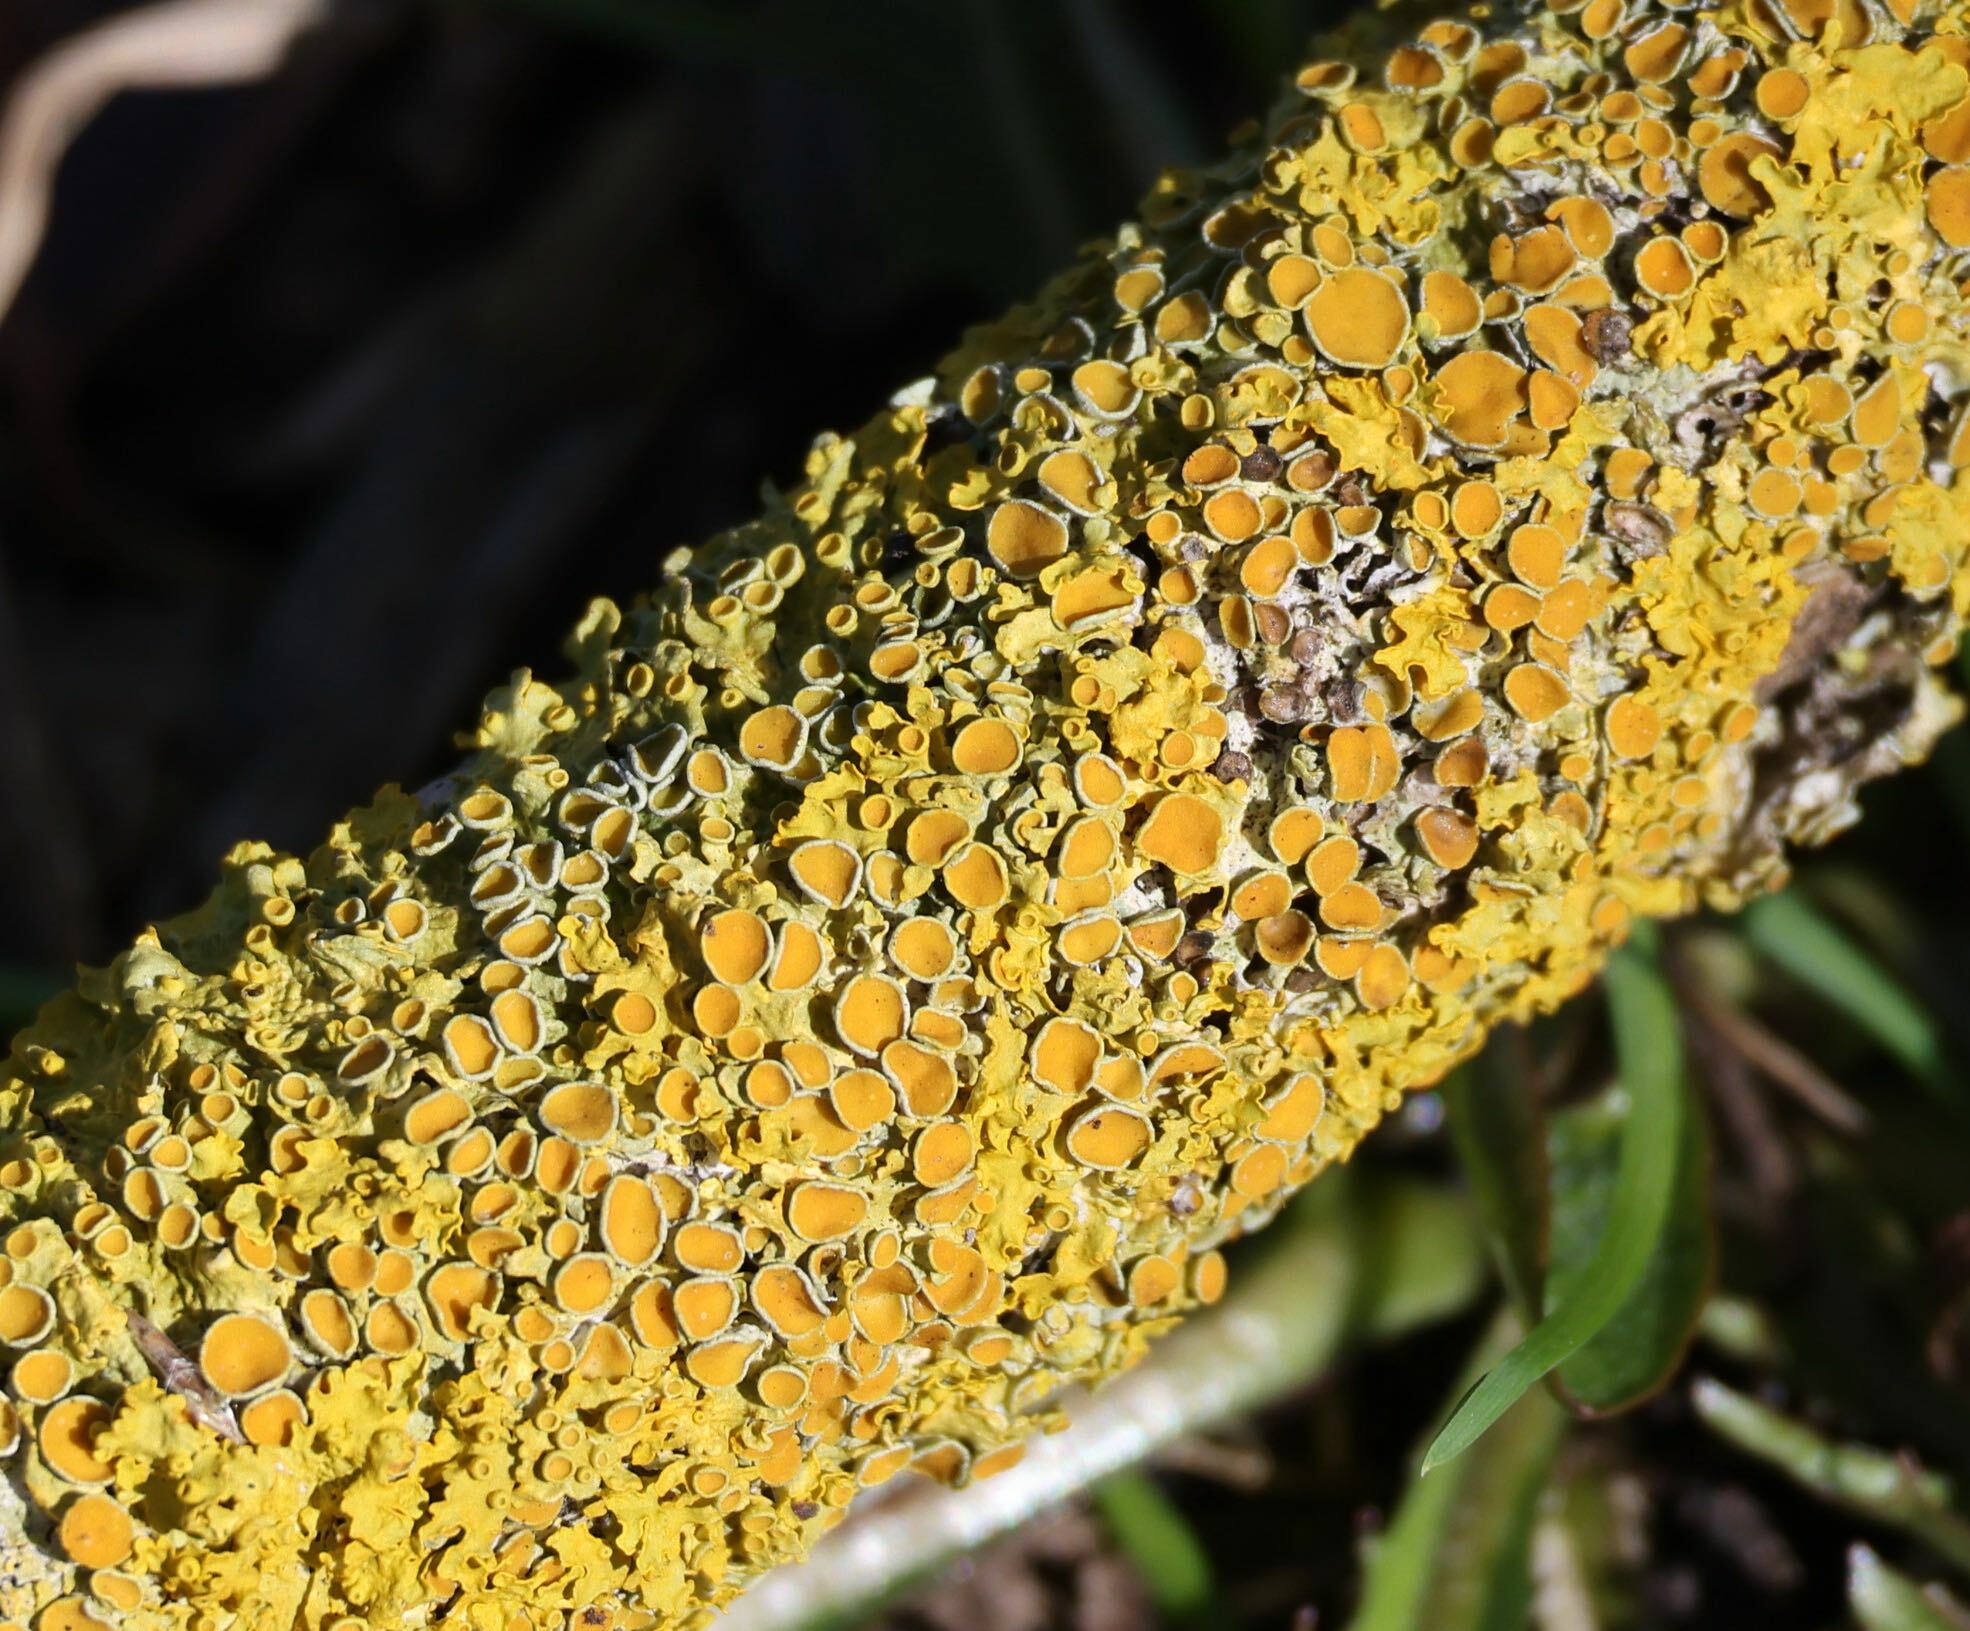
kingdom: Fungi
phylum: Ascomycota
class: Lecanoromycetes
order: Teloschistales
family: Teloschistaceae
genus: Xanthoria
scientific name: Xanthoria parietina
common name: Common orange lichen
